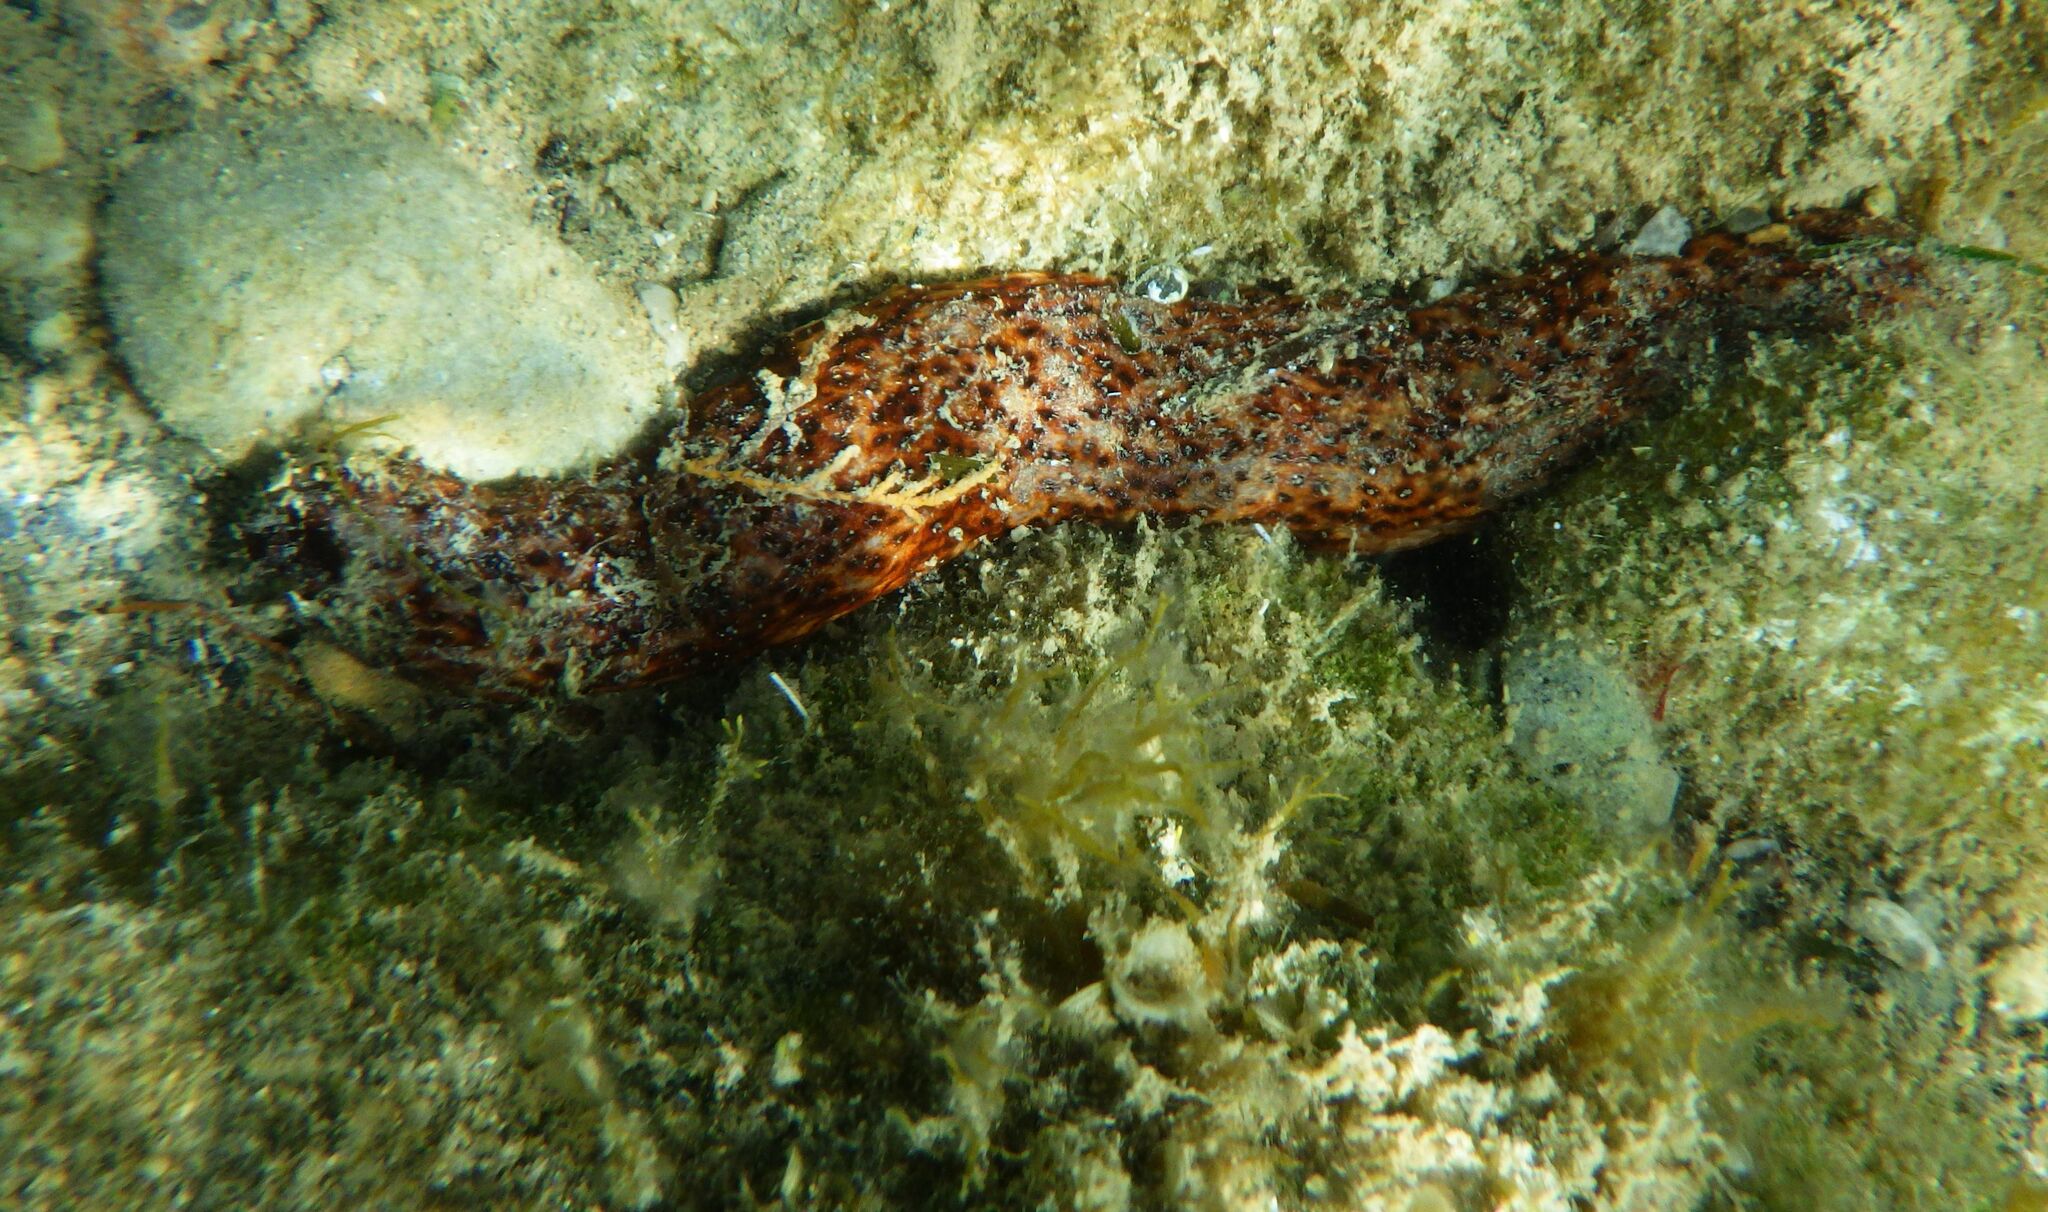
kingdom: Animalia
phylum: Echinodermata
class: Holothuroidea
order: Holothuriida
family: Holothuriidae
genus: Holothuria
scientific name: Holothuria
